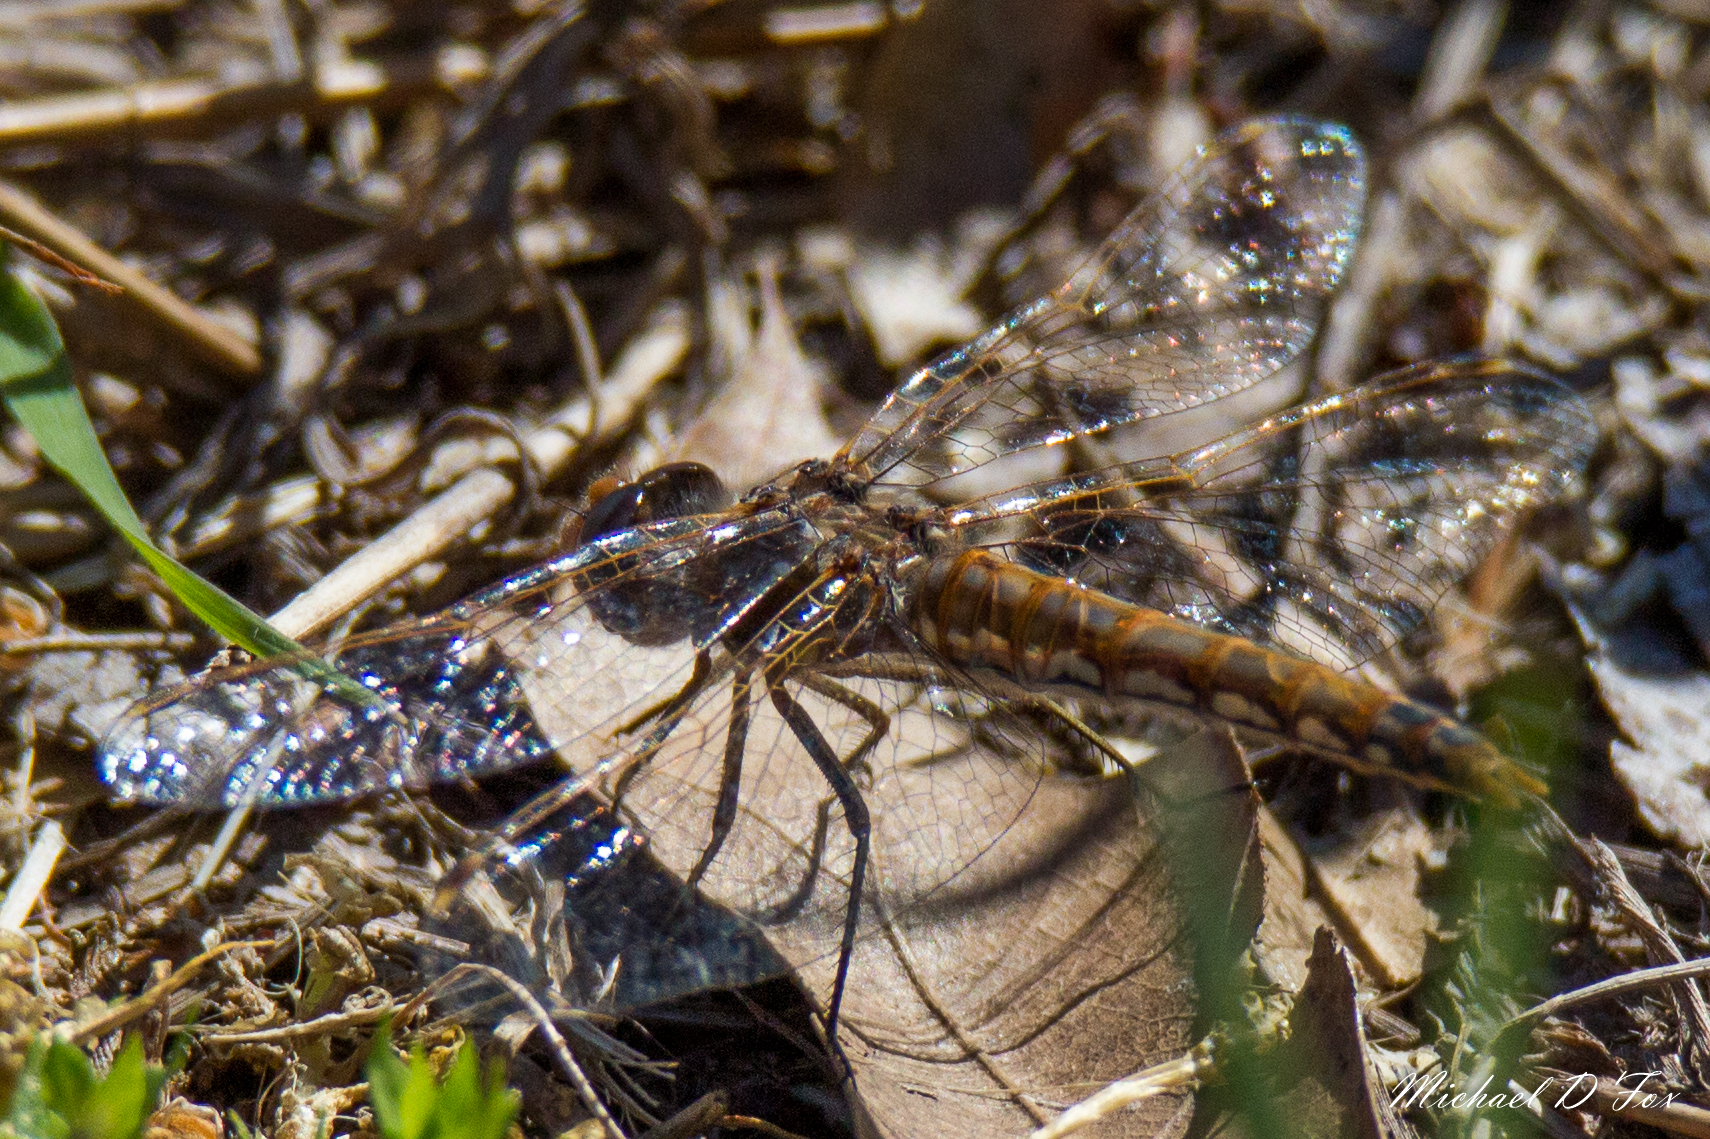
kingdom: Animalia
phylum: Arthropoda
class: Insecta
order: Odonata
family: Libellulidae
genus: Sympetrum
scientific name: Sympetrum corruptum
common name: Variegated meadowhawk
